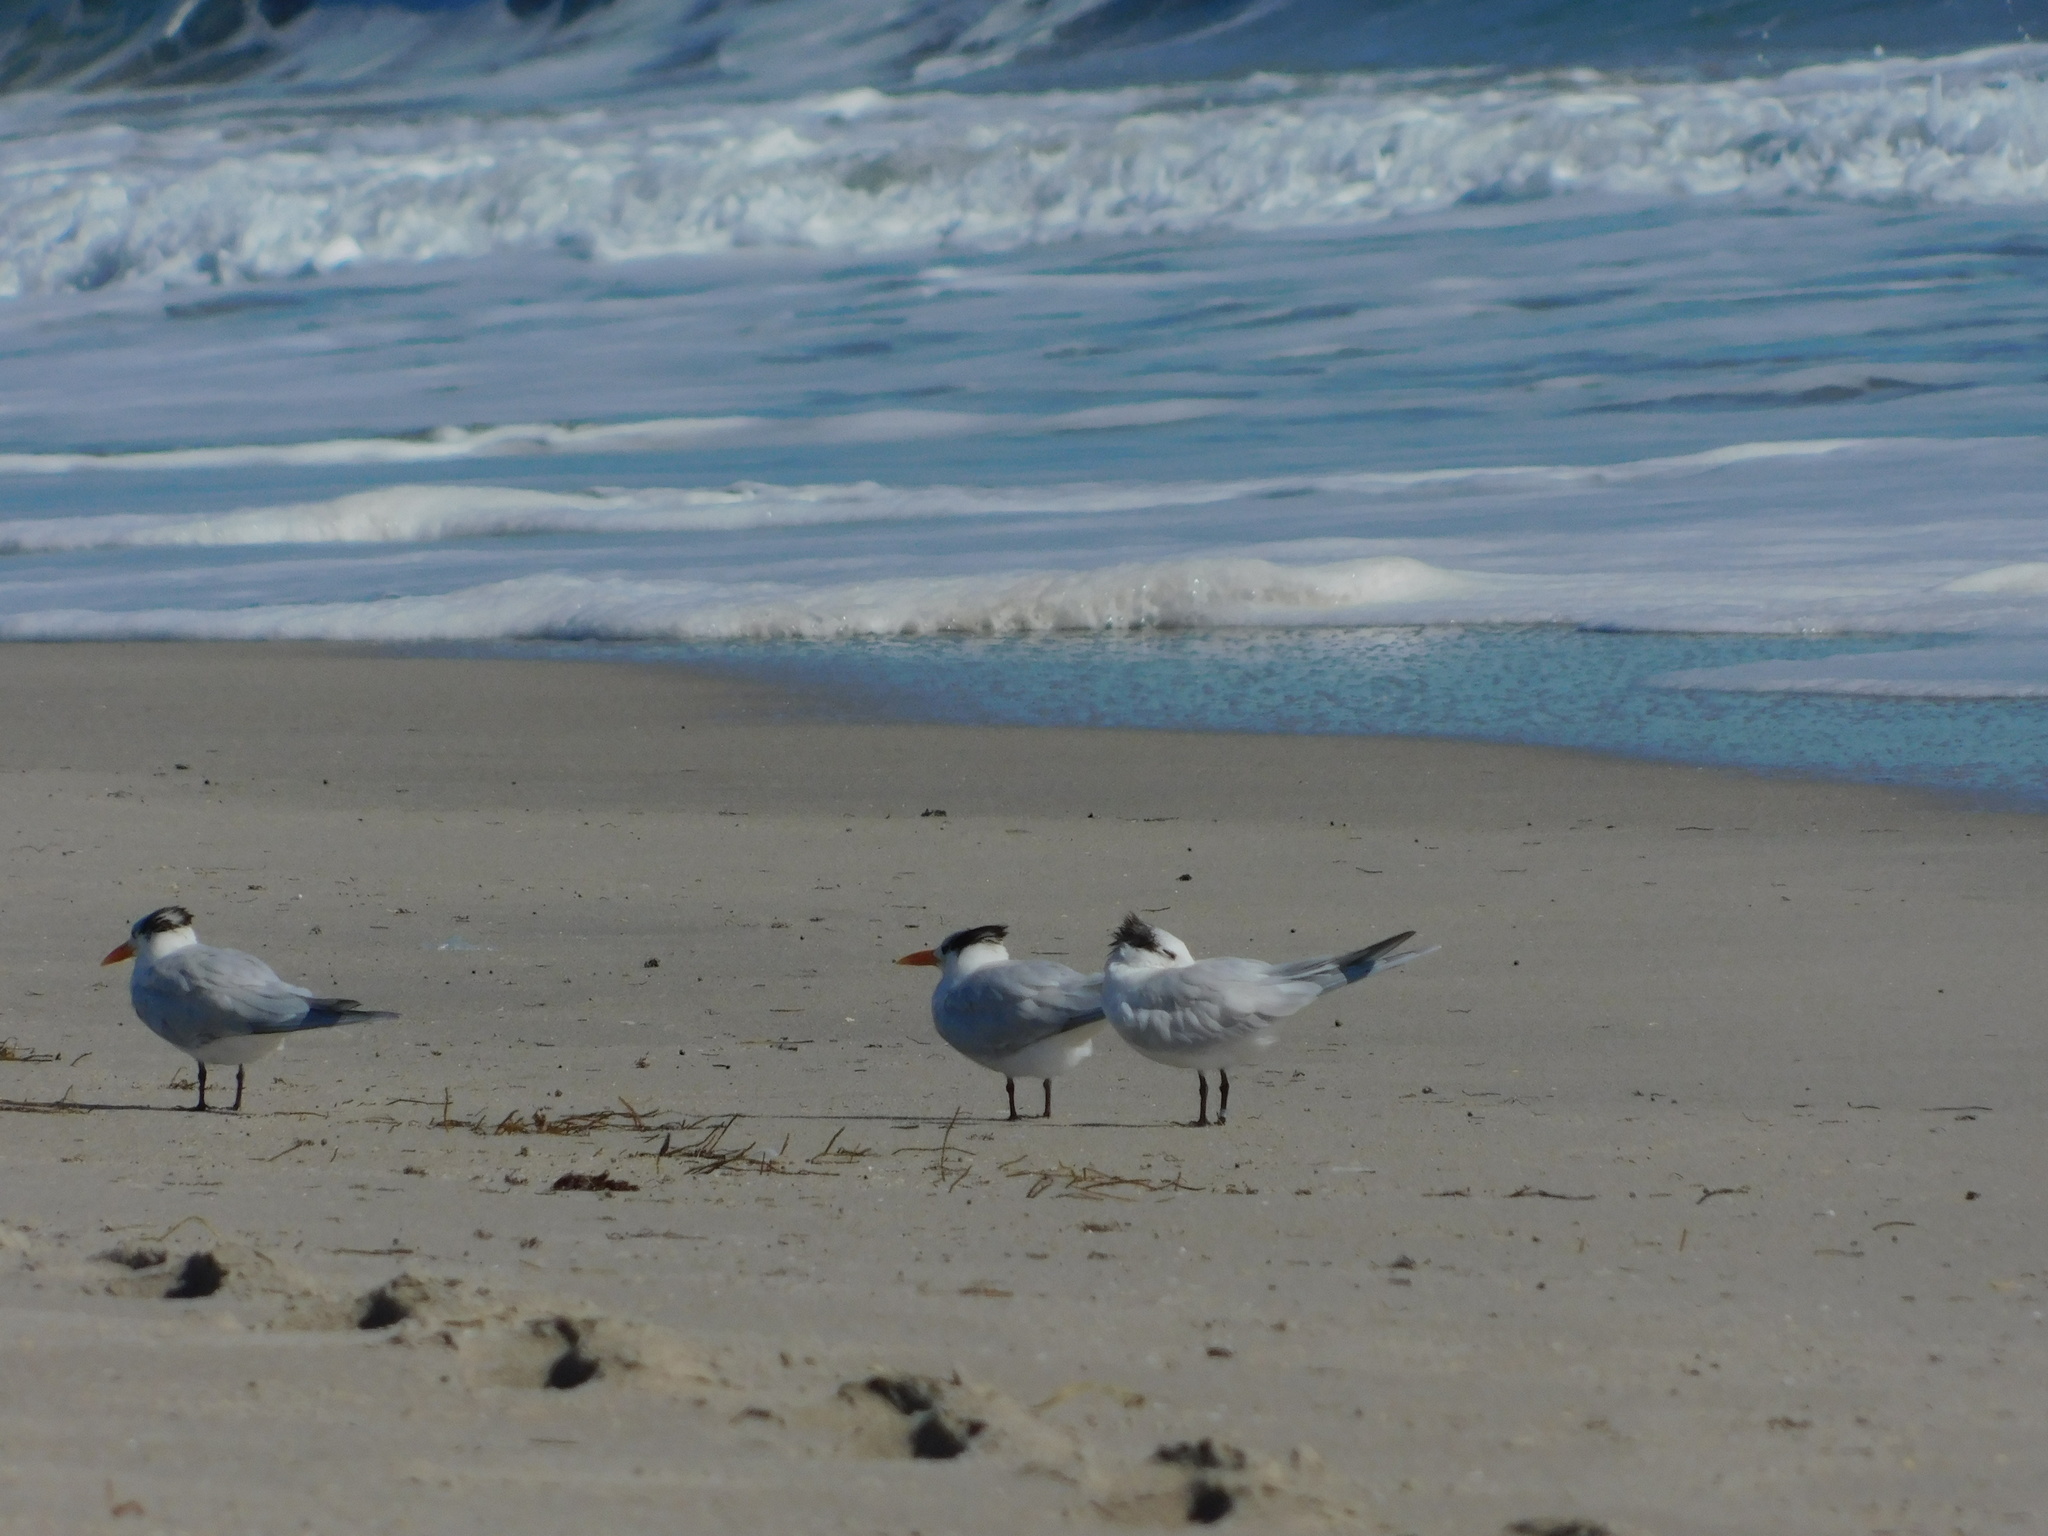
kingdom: Animalia
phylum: Chordata
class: Aves
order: Charadriiformes
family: Laridae
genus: Thalasseus
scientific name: Thalasseus maximus
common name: Royal tern
